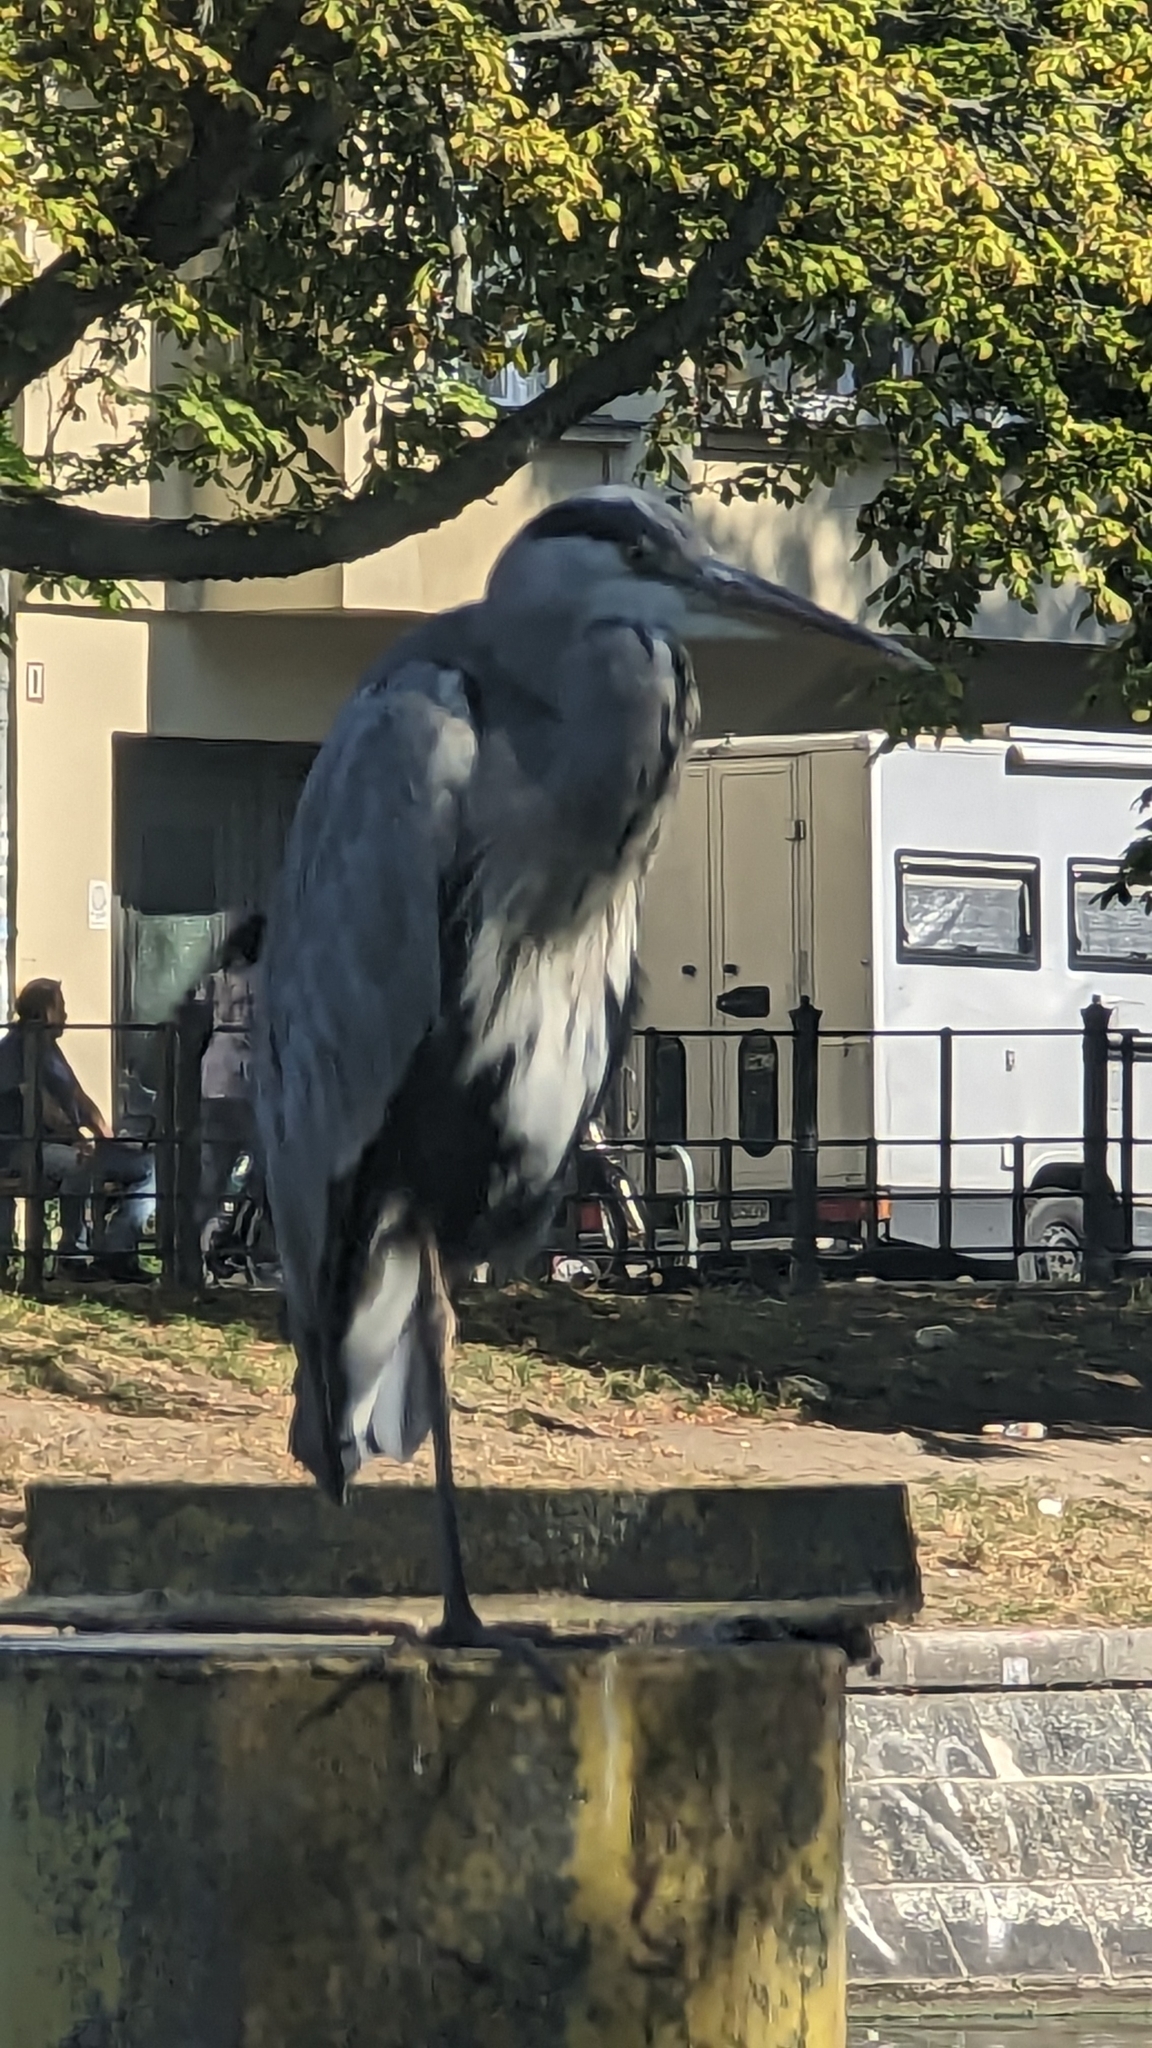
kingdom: Animalia
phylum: Chordata
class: Aves
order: Pelecaniformes
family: Ardeidae
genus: Ardea
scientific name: Ardea cinerea
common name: Grey heron
